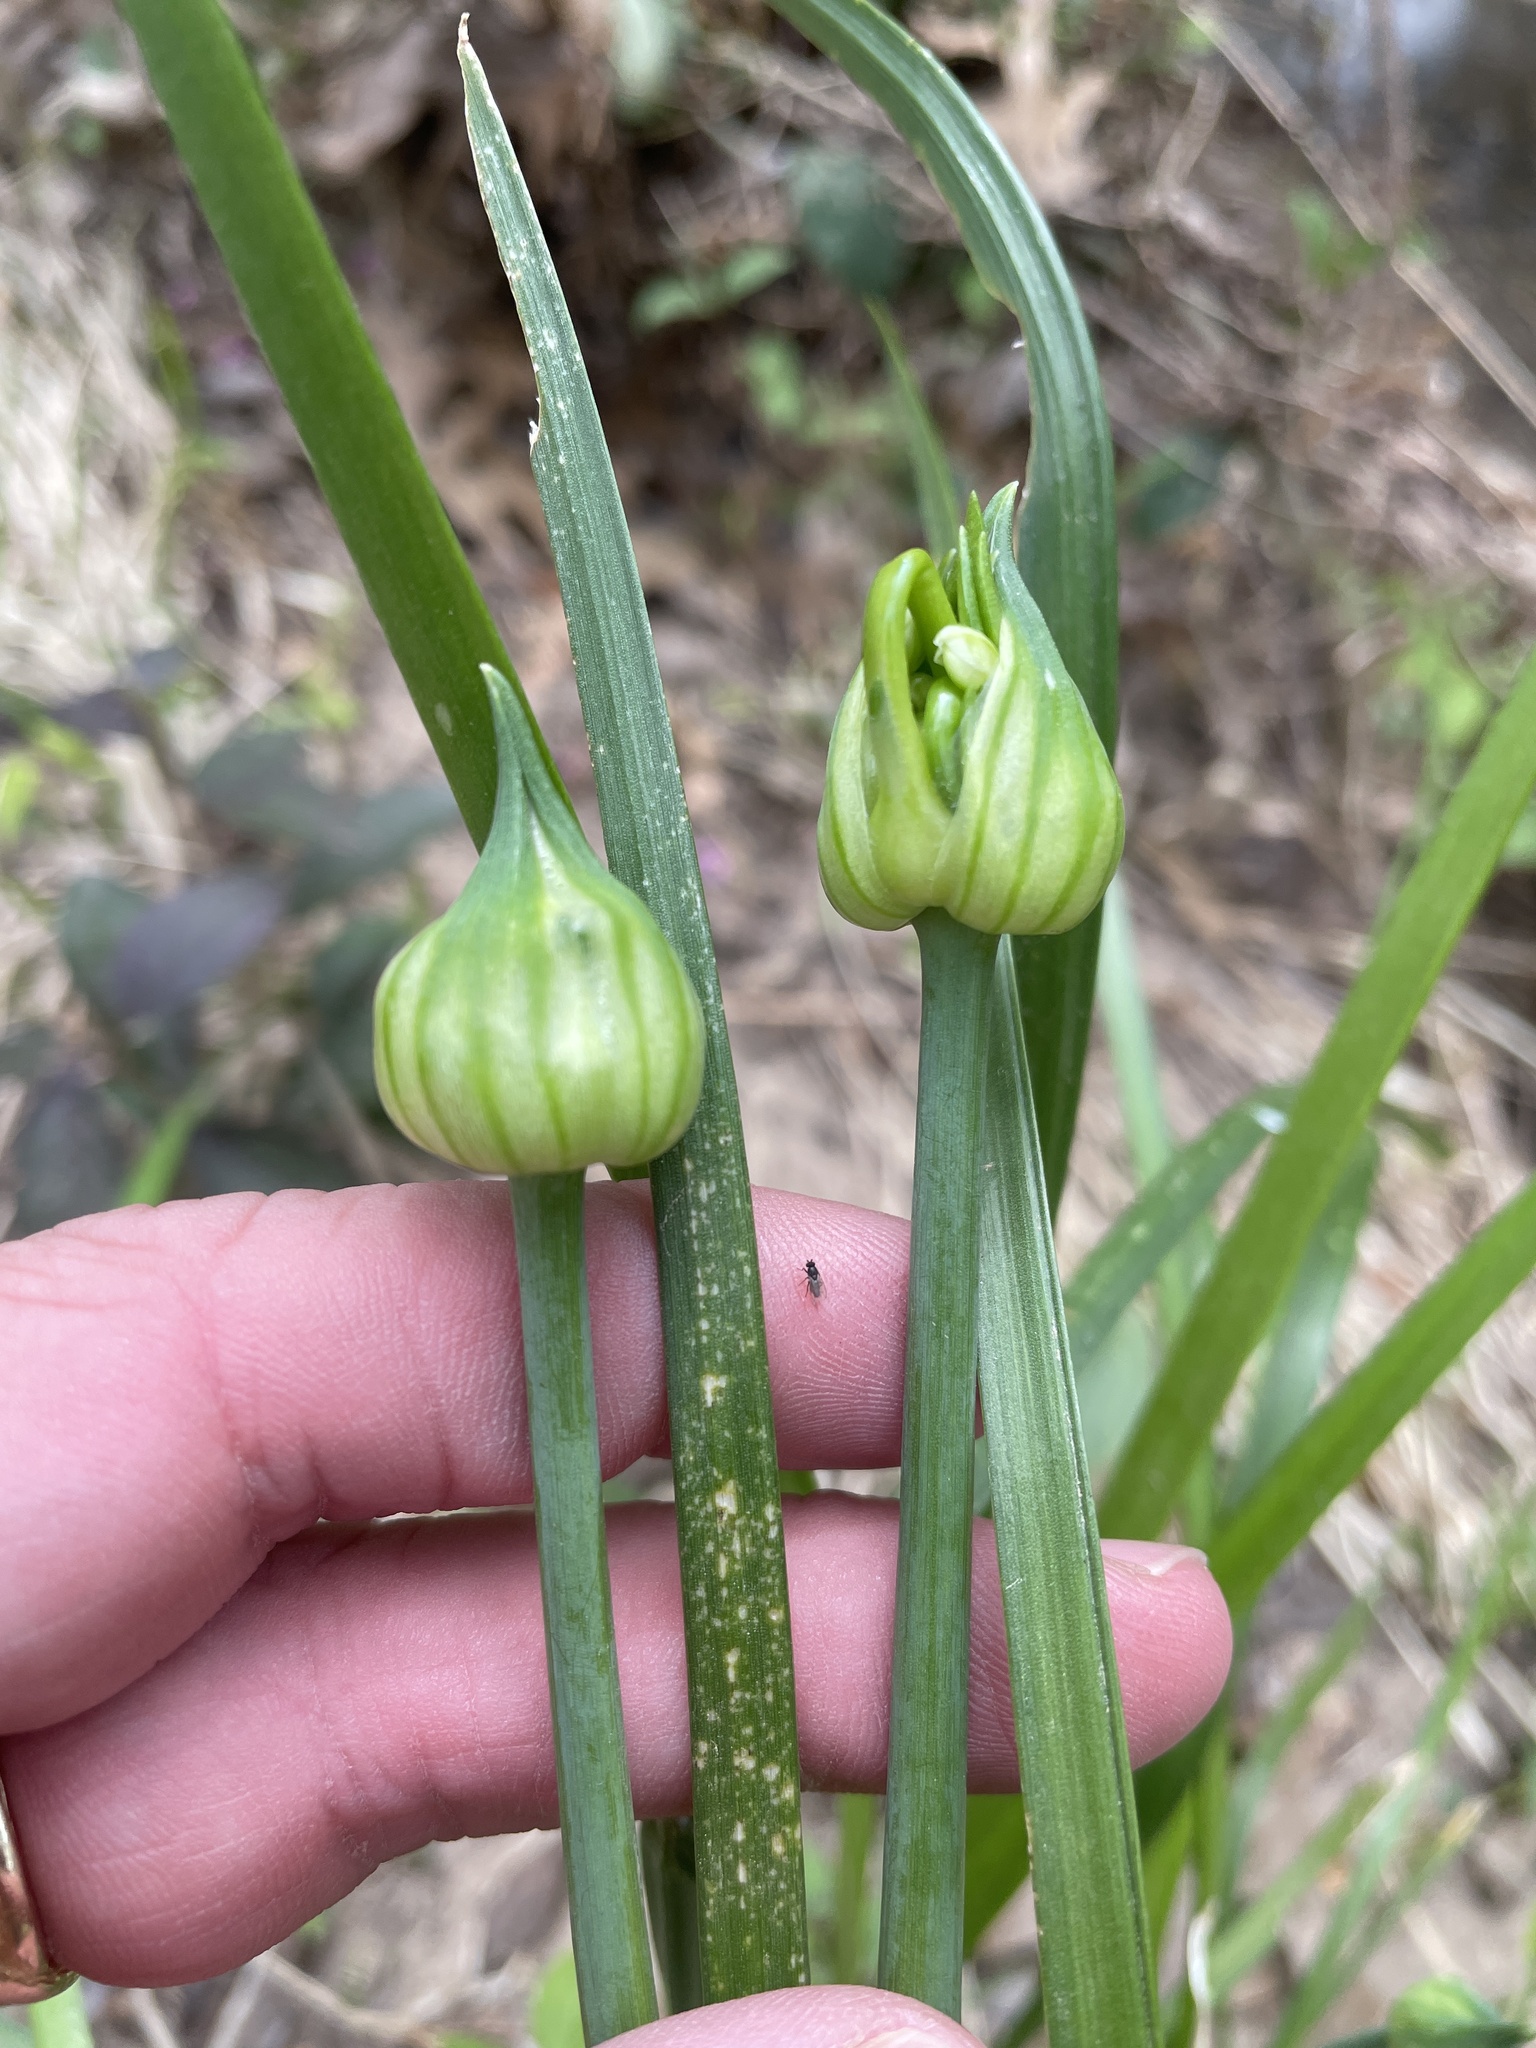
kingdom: Plantae
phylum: Tracheophyta
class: Liliopsida
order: Asparagales
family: Amaryllidaceae
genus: Allium
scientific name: Allium canadense
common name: Meadow garlic
